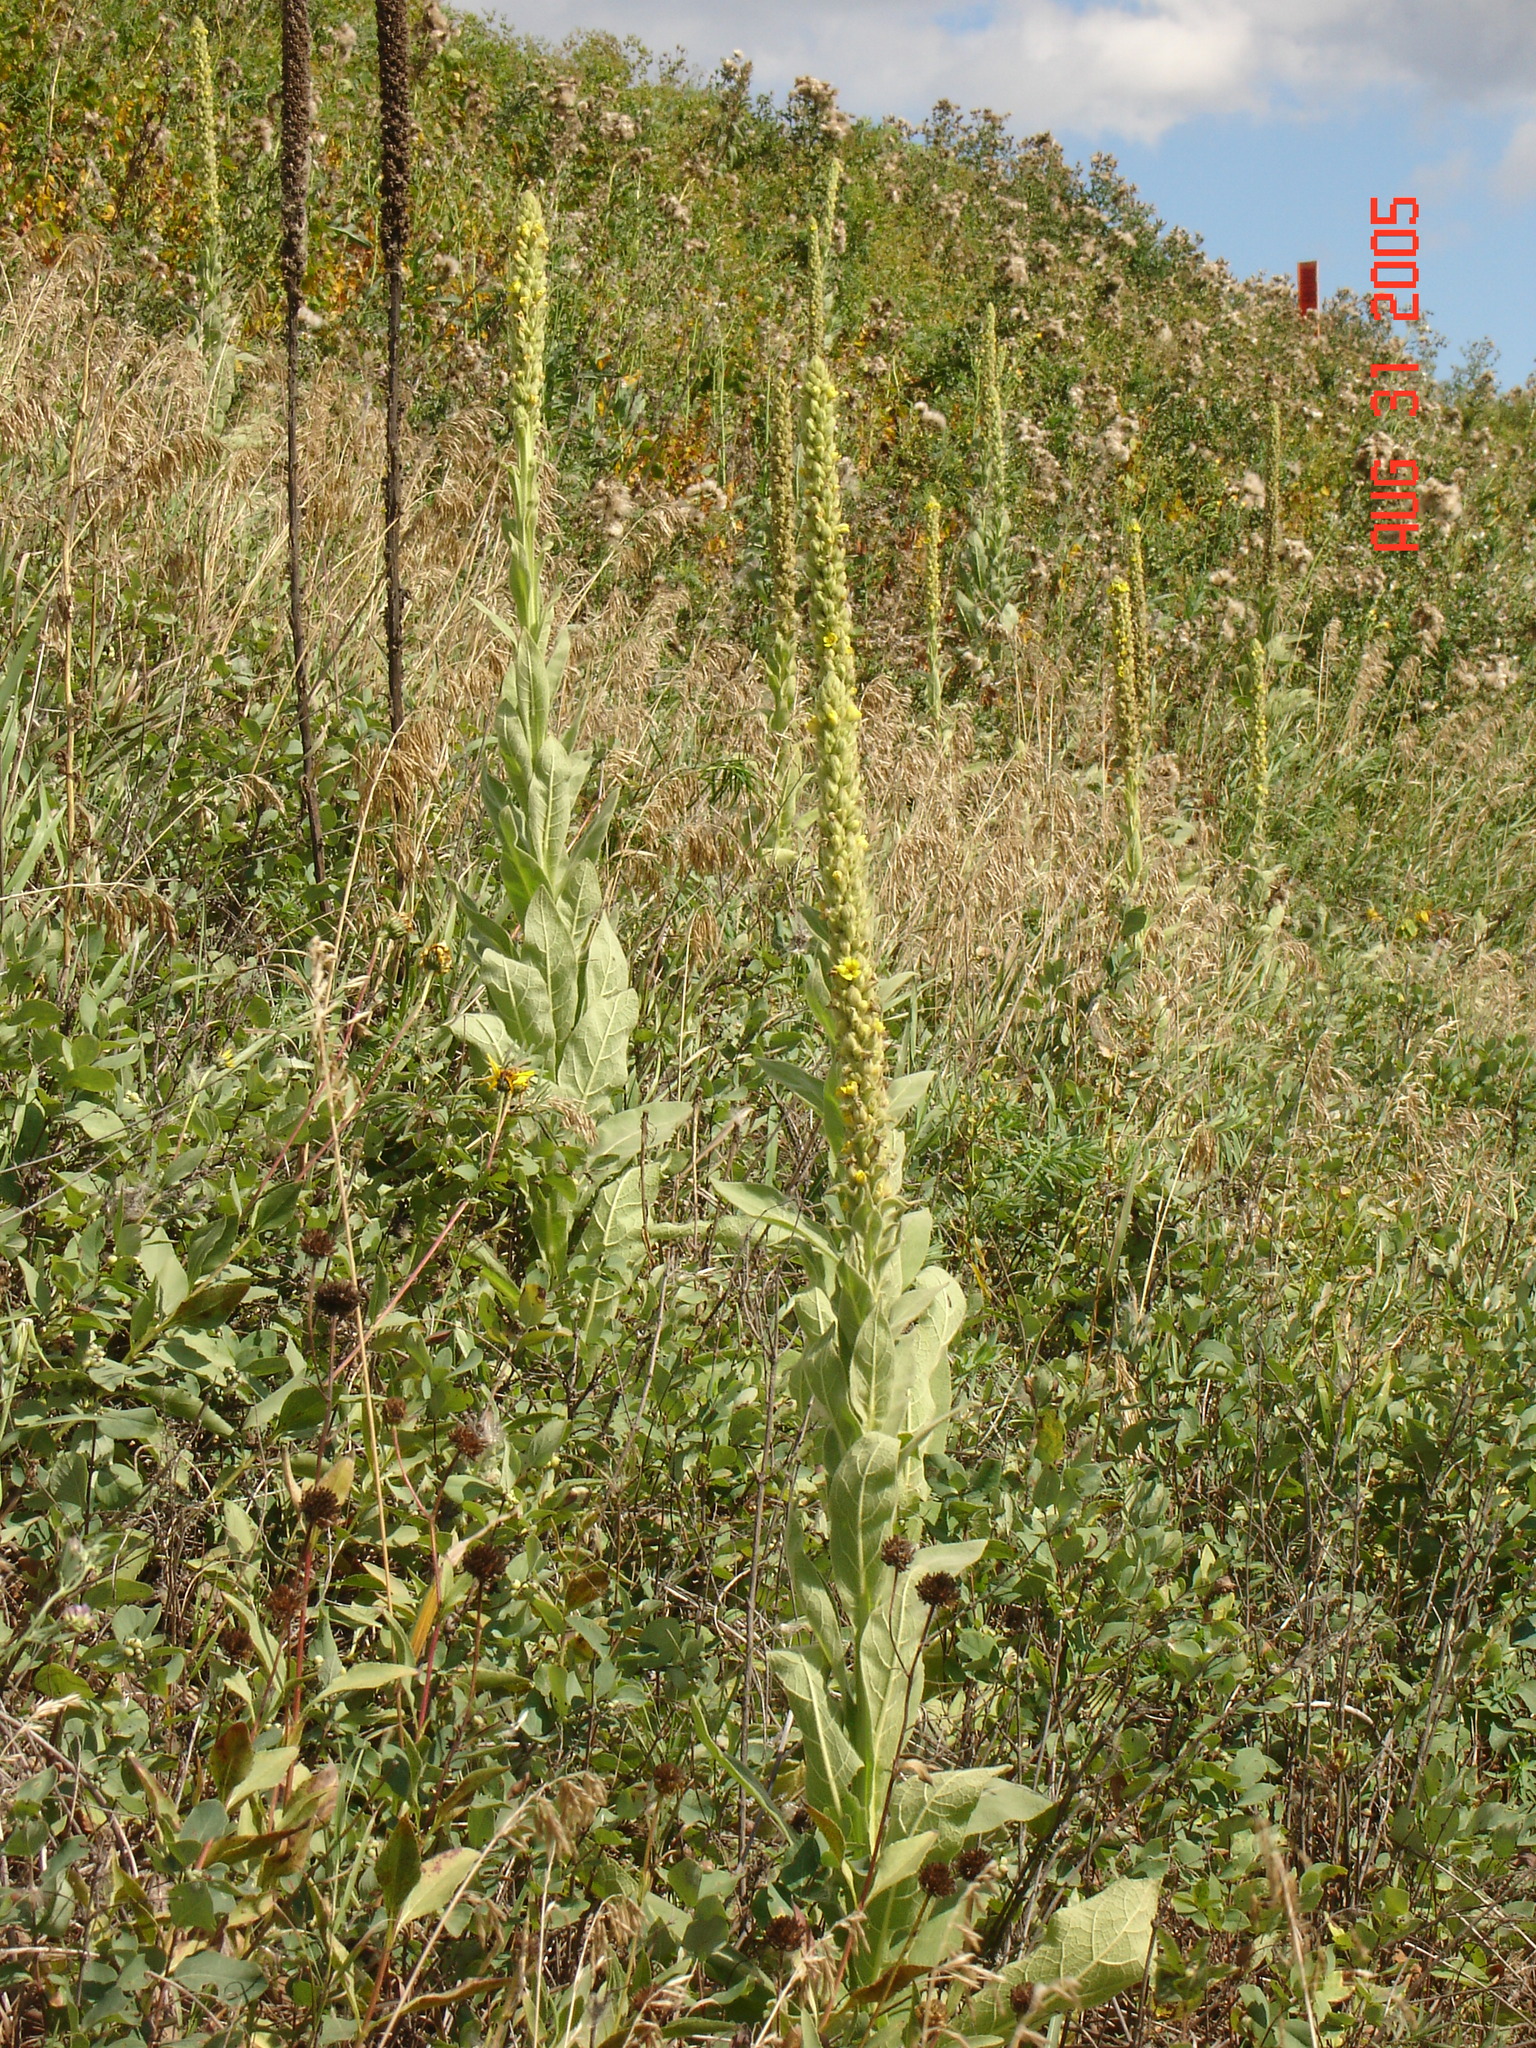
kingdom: Plantae
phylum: Tracheophyta
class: Magnoliopsida
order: Lamiales
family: Scrophulariaceae
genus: Verbascum
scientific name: Verbascum thapsus
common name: Common mullein
